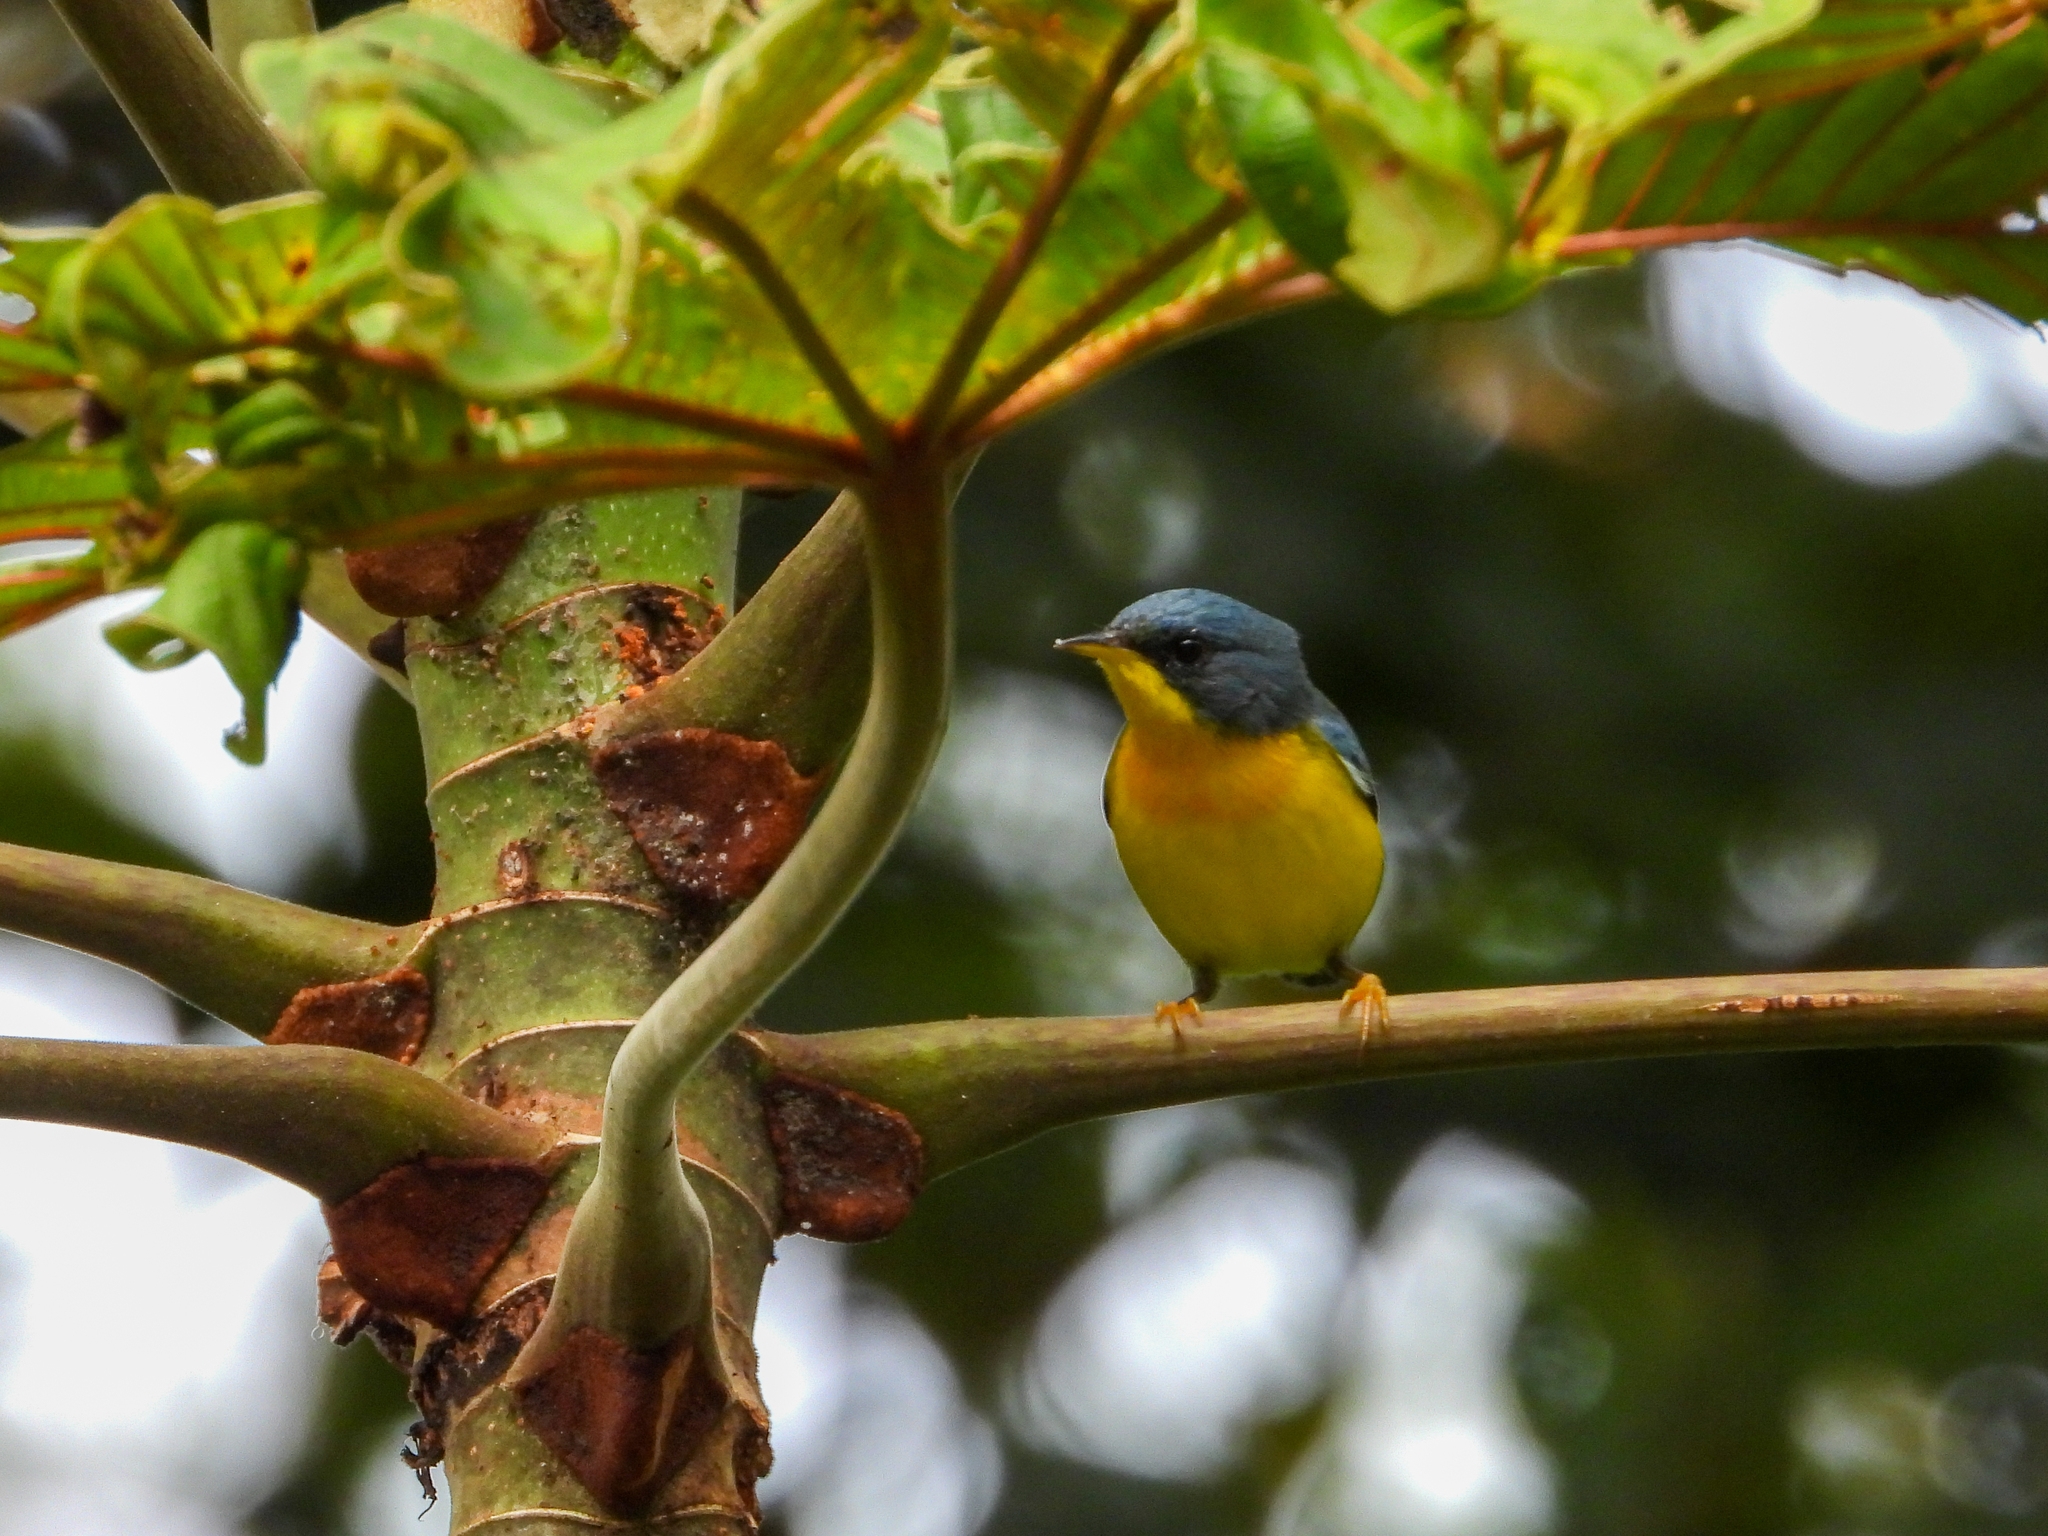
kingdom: Animalia
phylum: Chordata
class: Aves
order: Passeriformes
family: Parulidae
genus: Setophaga
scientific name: Setophaga pitiayumi
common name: Tropical parula
